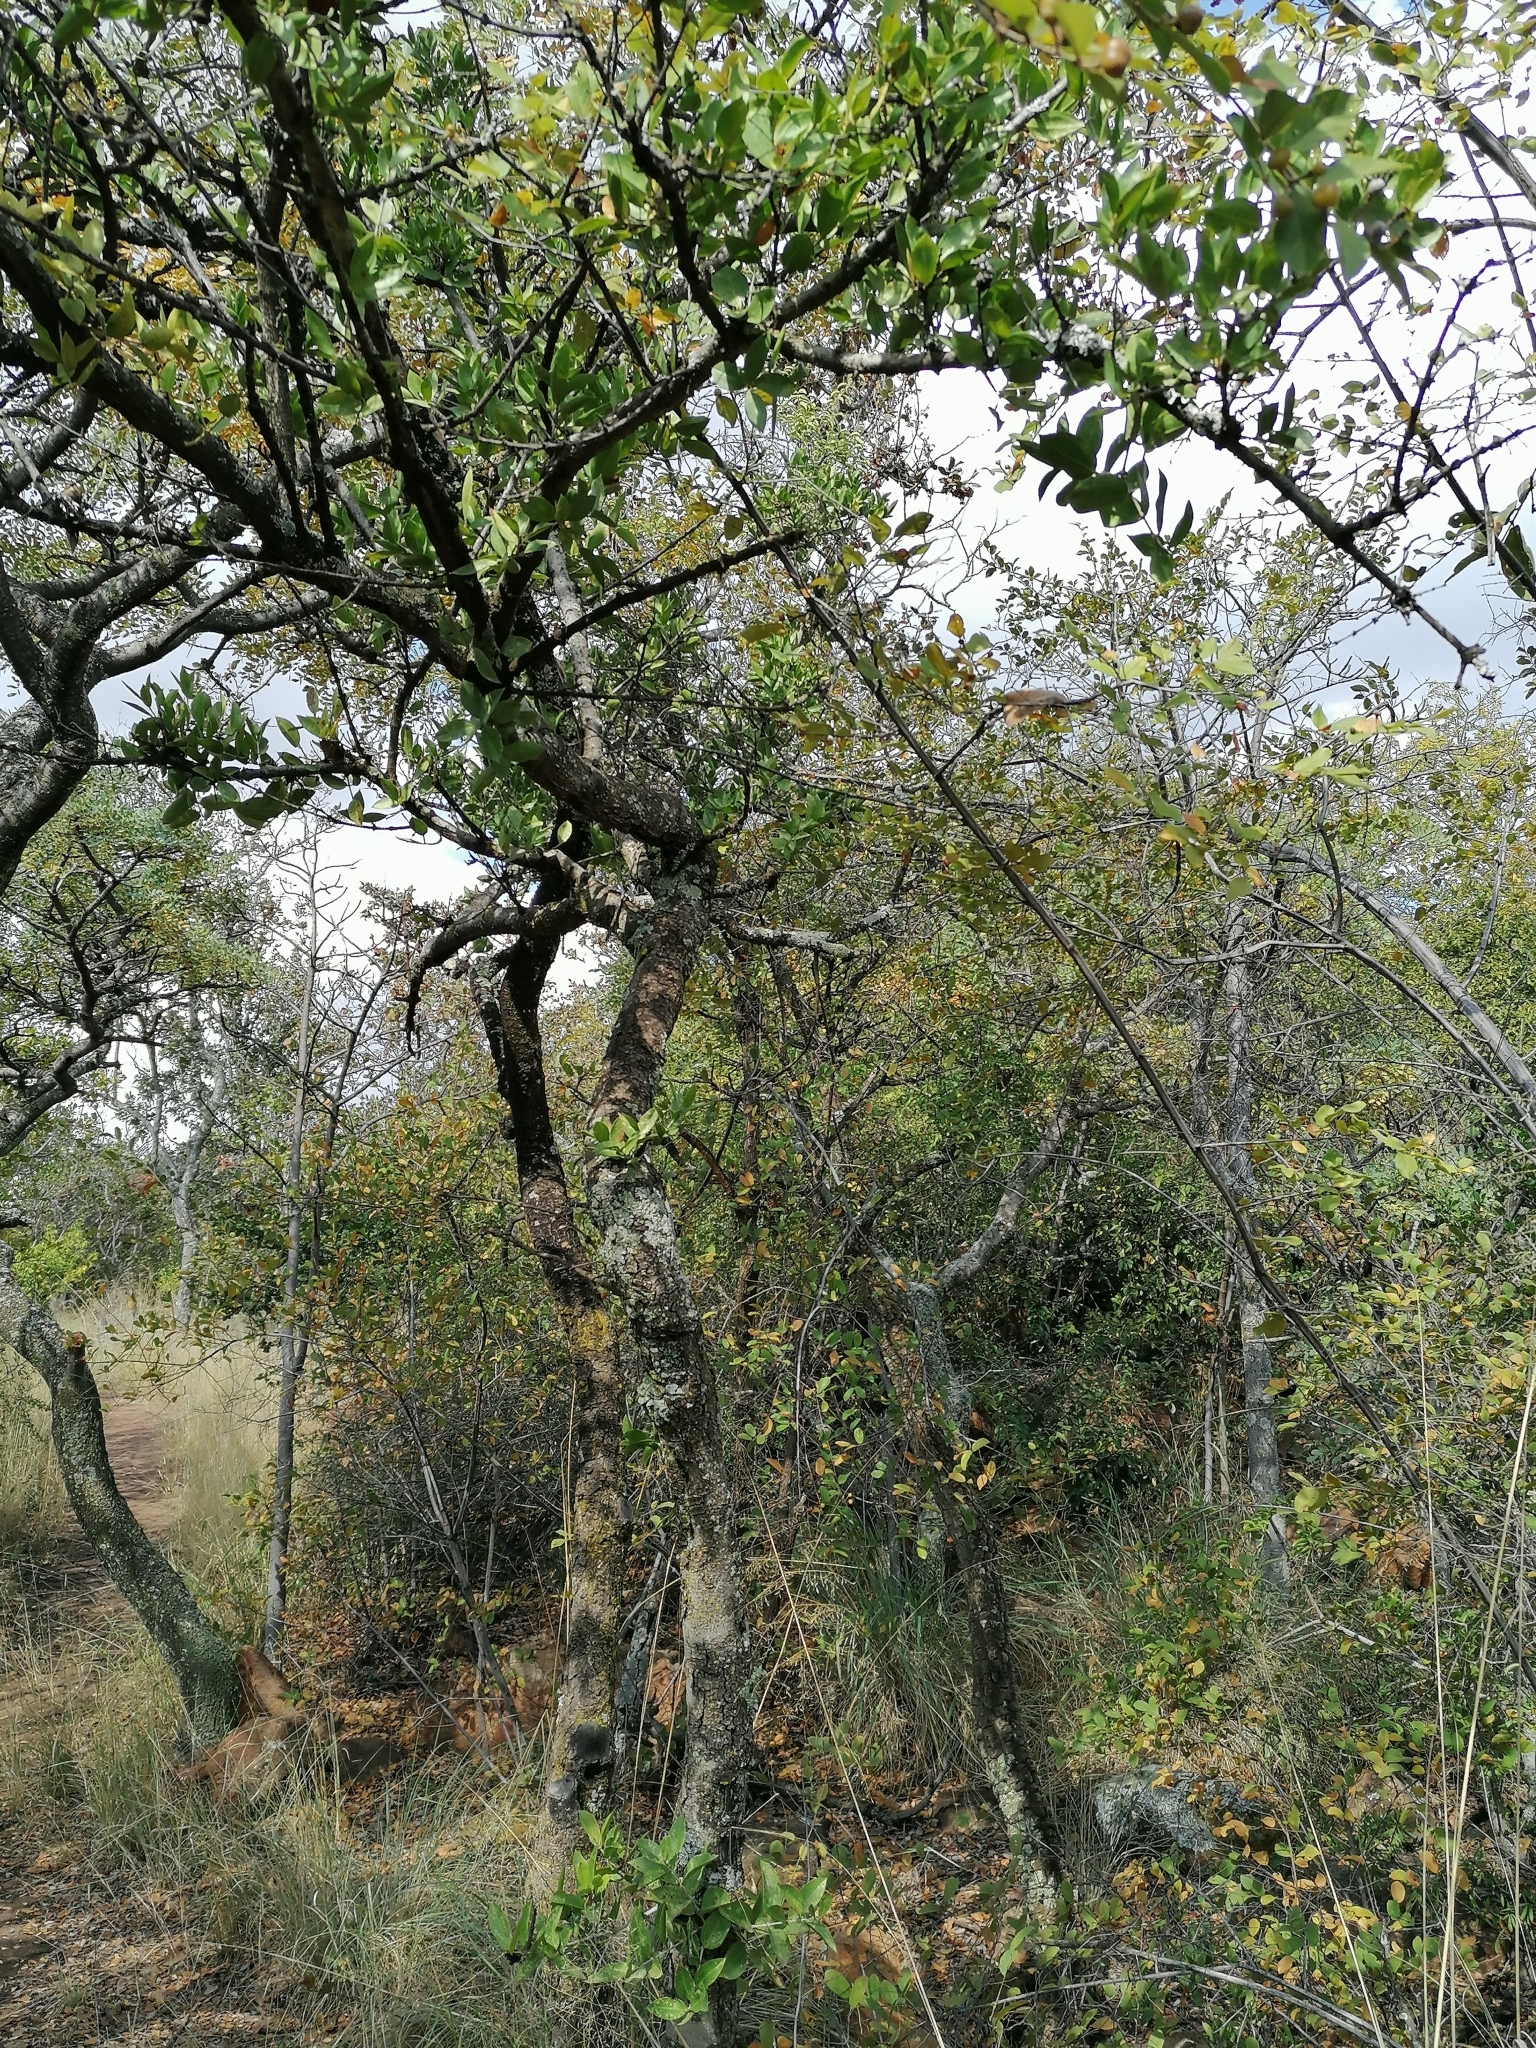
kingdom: Plantae
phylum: Tracheophyta
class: Magnoliopsida
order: Gentianales
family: Loganiaceae
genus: Strychnos
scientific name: Strychnos pungens
